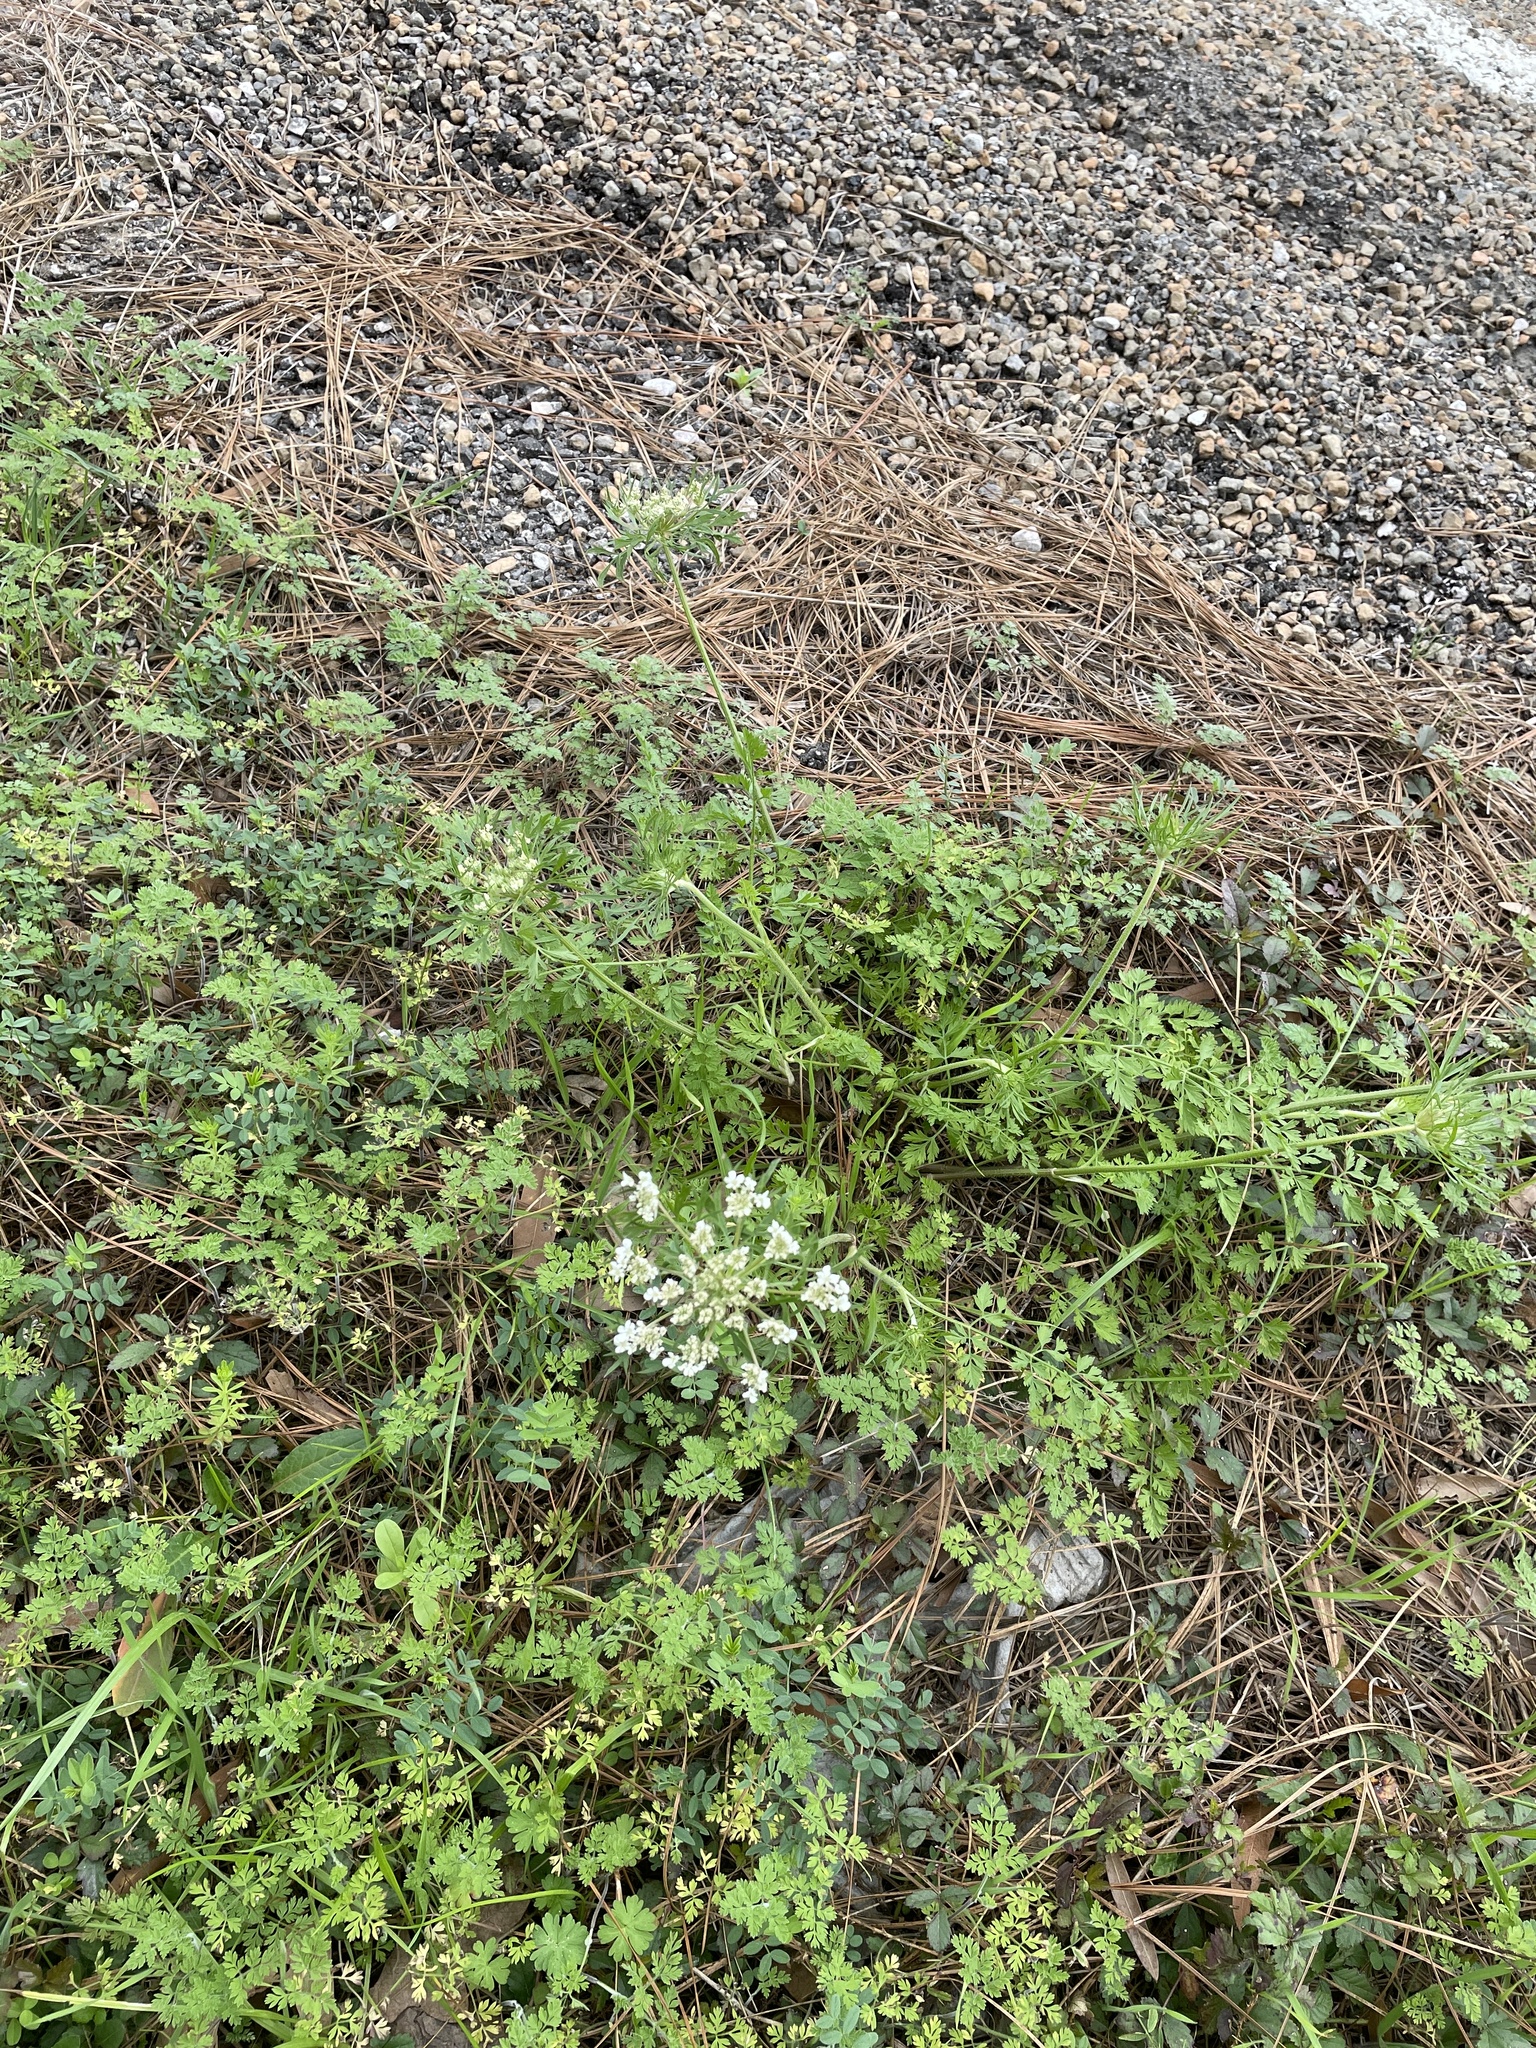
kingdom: Plantae
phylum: Tracheophyta
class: Magnoliopsida
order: Apiales
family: Apiaceae
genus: Daucus
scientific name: Daucus carota
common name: Wild carrot
